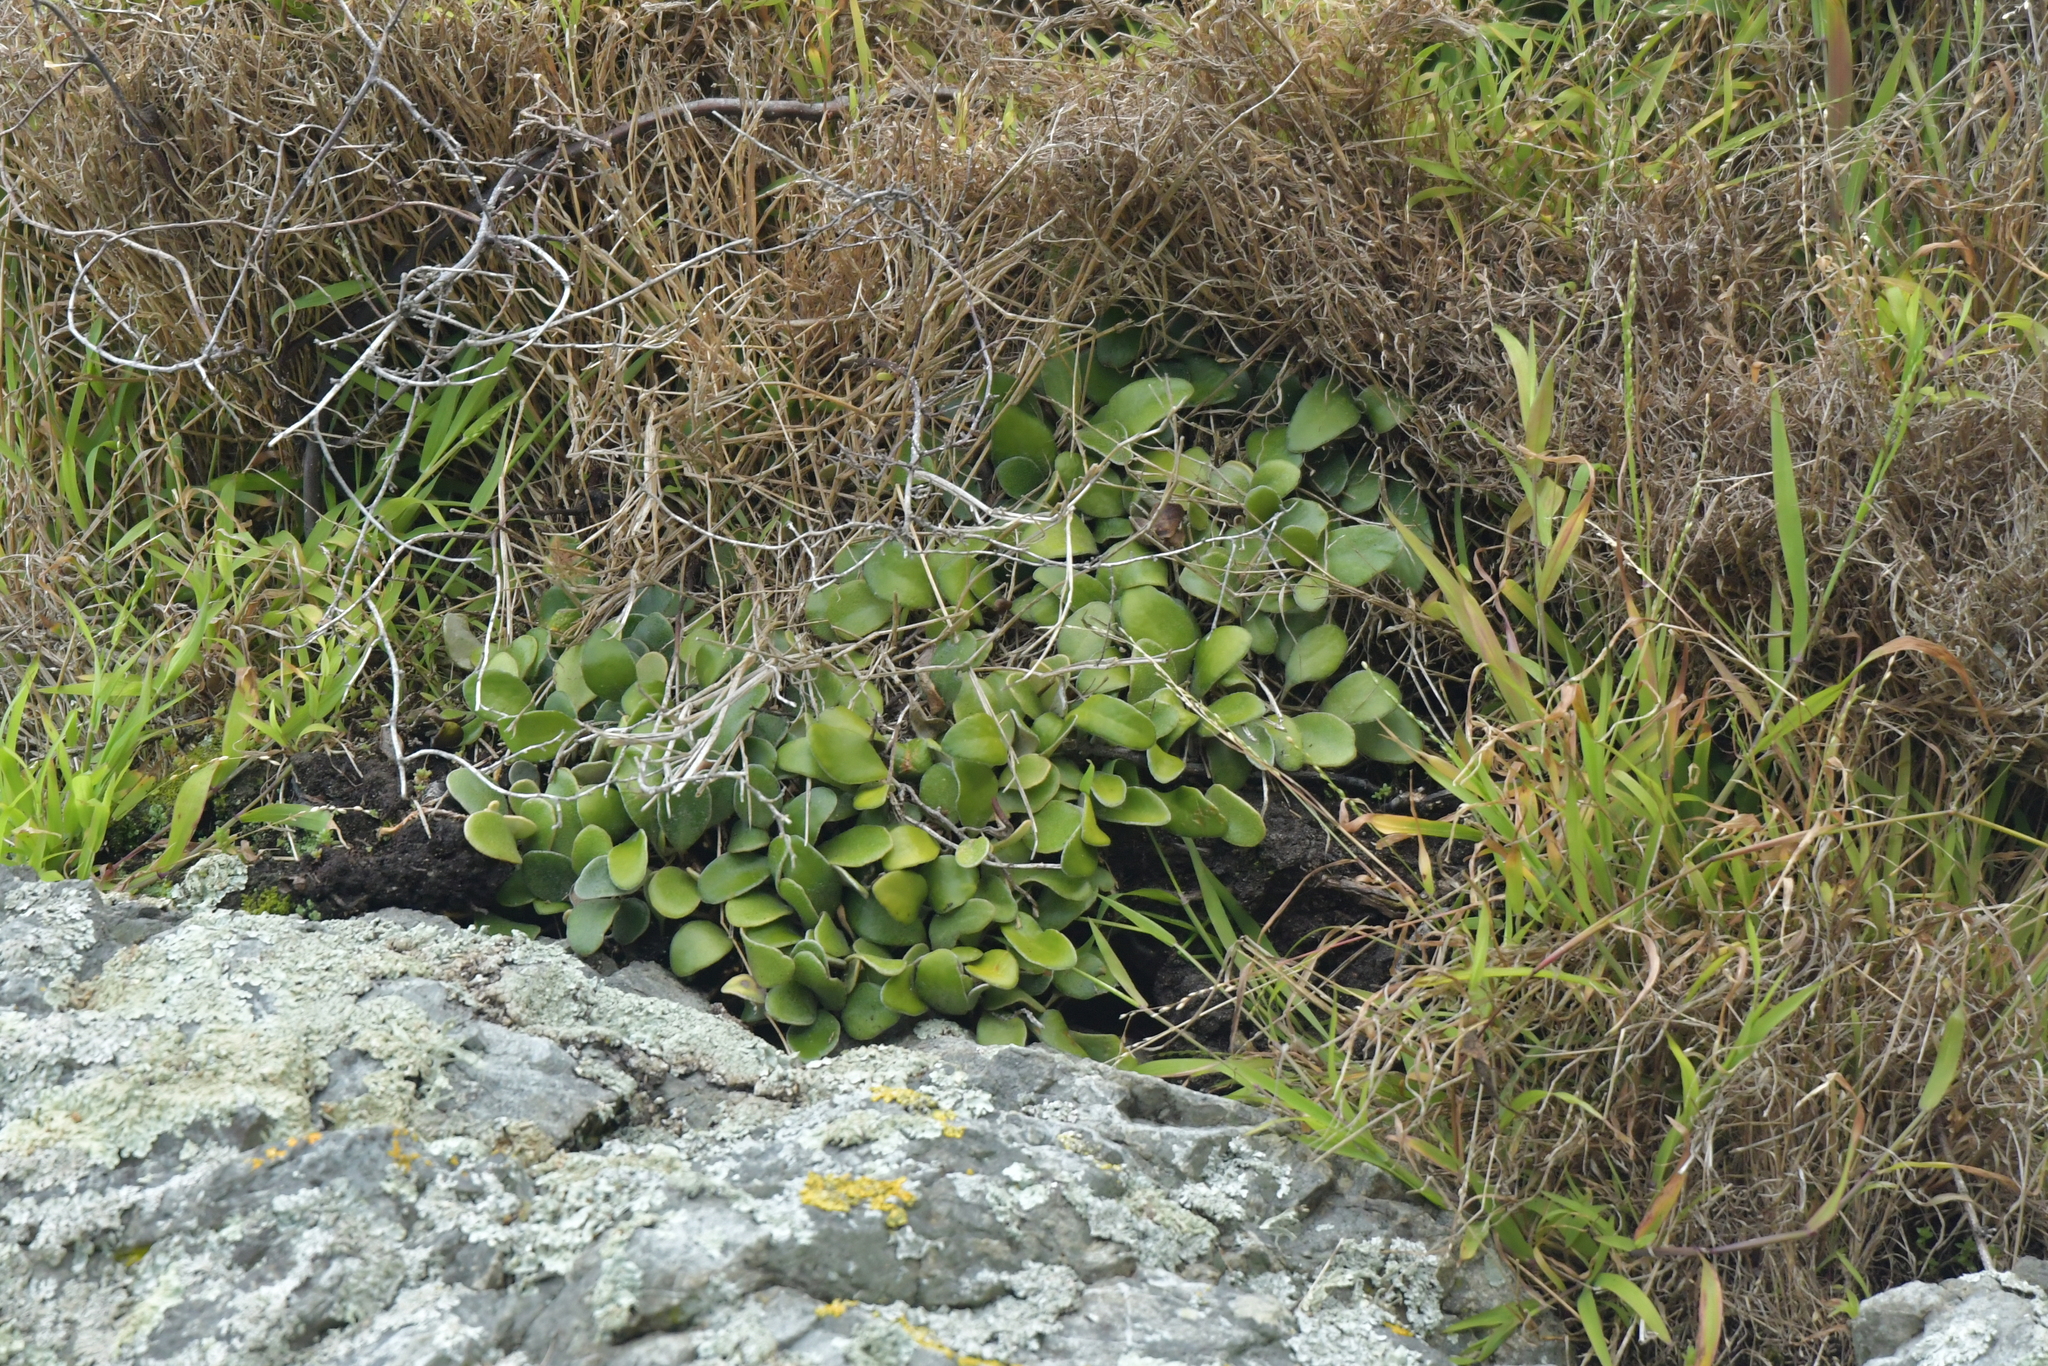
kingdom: Plantae
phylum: Tracheophyta
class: Polypodiopsida
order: Polypodiales
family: Polypodiaceae
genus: Pyrrosia
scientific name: Pyrrosia eleagnifolia
